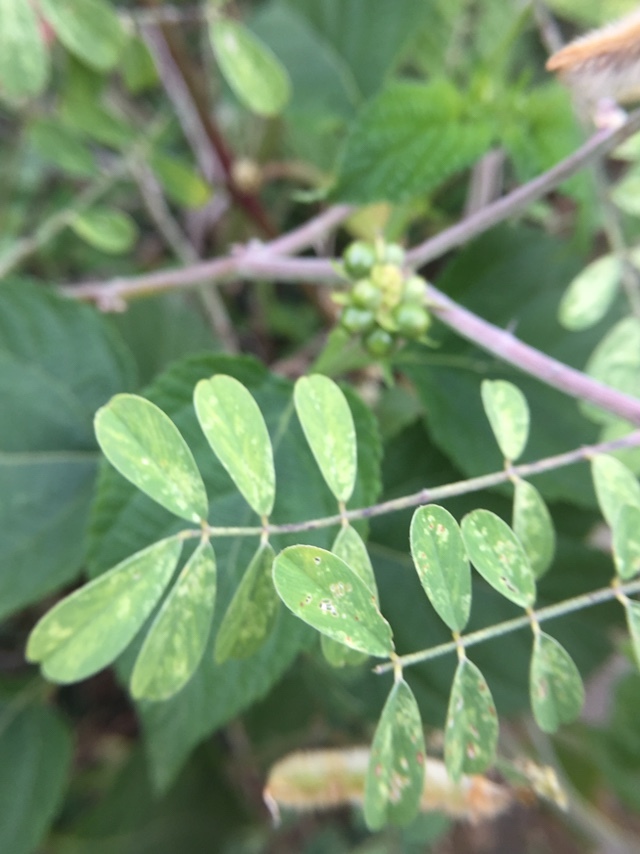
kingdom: Plantae
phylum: Tracheophyta
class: Magnoliopsida
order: Fabales
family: Fabaceae
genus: Tephrosia
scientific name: Tephrosia villosa
